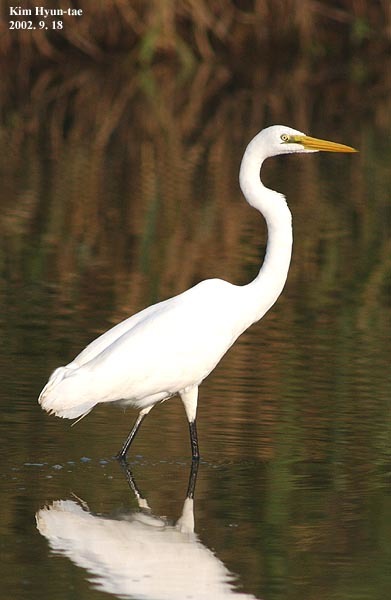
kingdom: Animalia
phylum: Chordata
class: Aves
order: Pelecaniformes
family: Ardeidae
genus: Ardea
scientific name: Ardea alba
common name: Great egret
